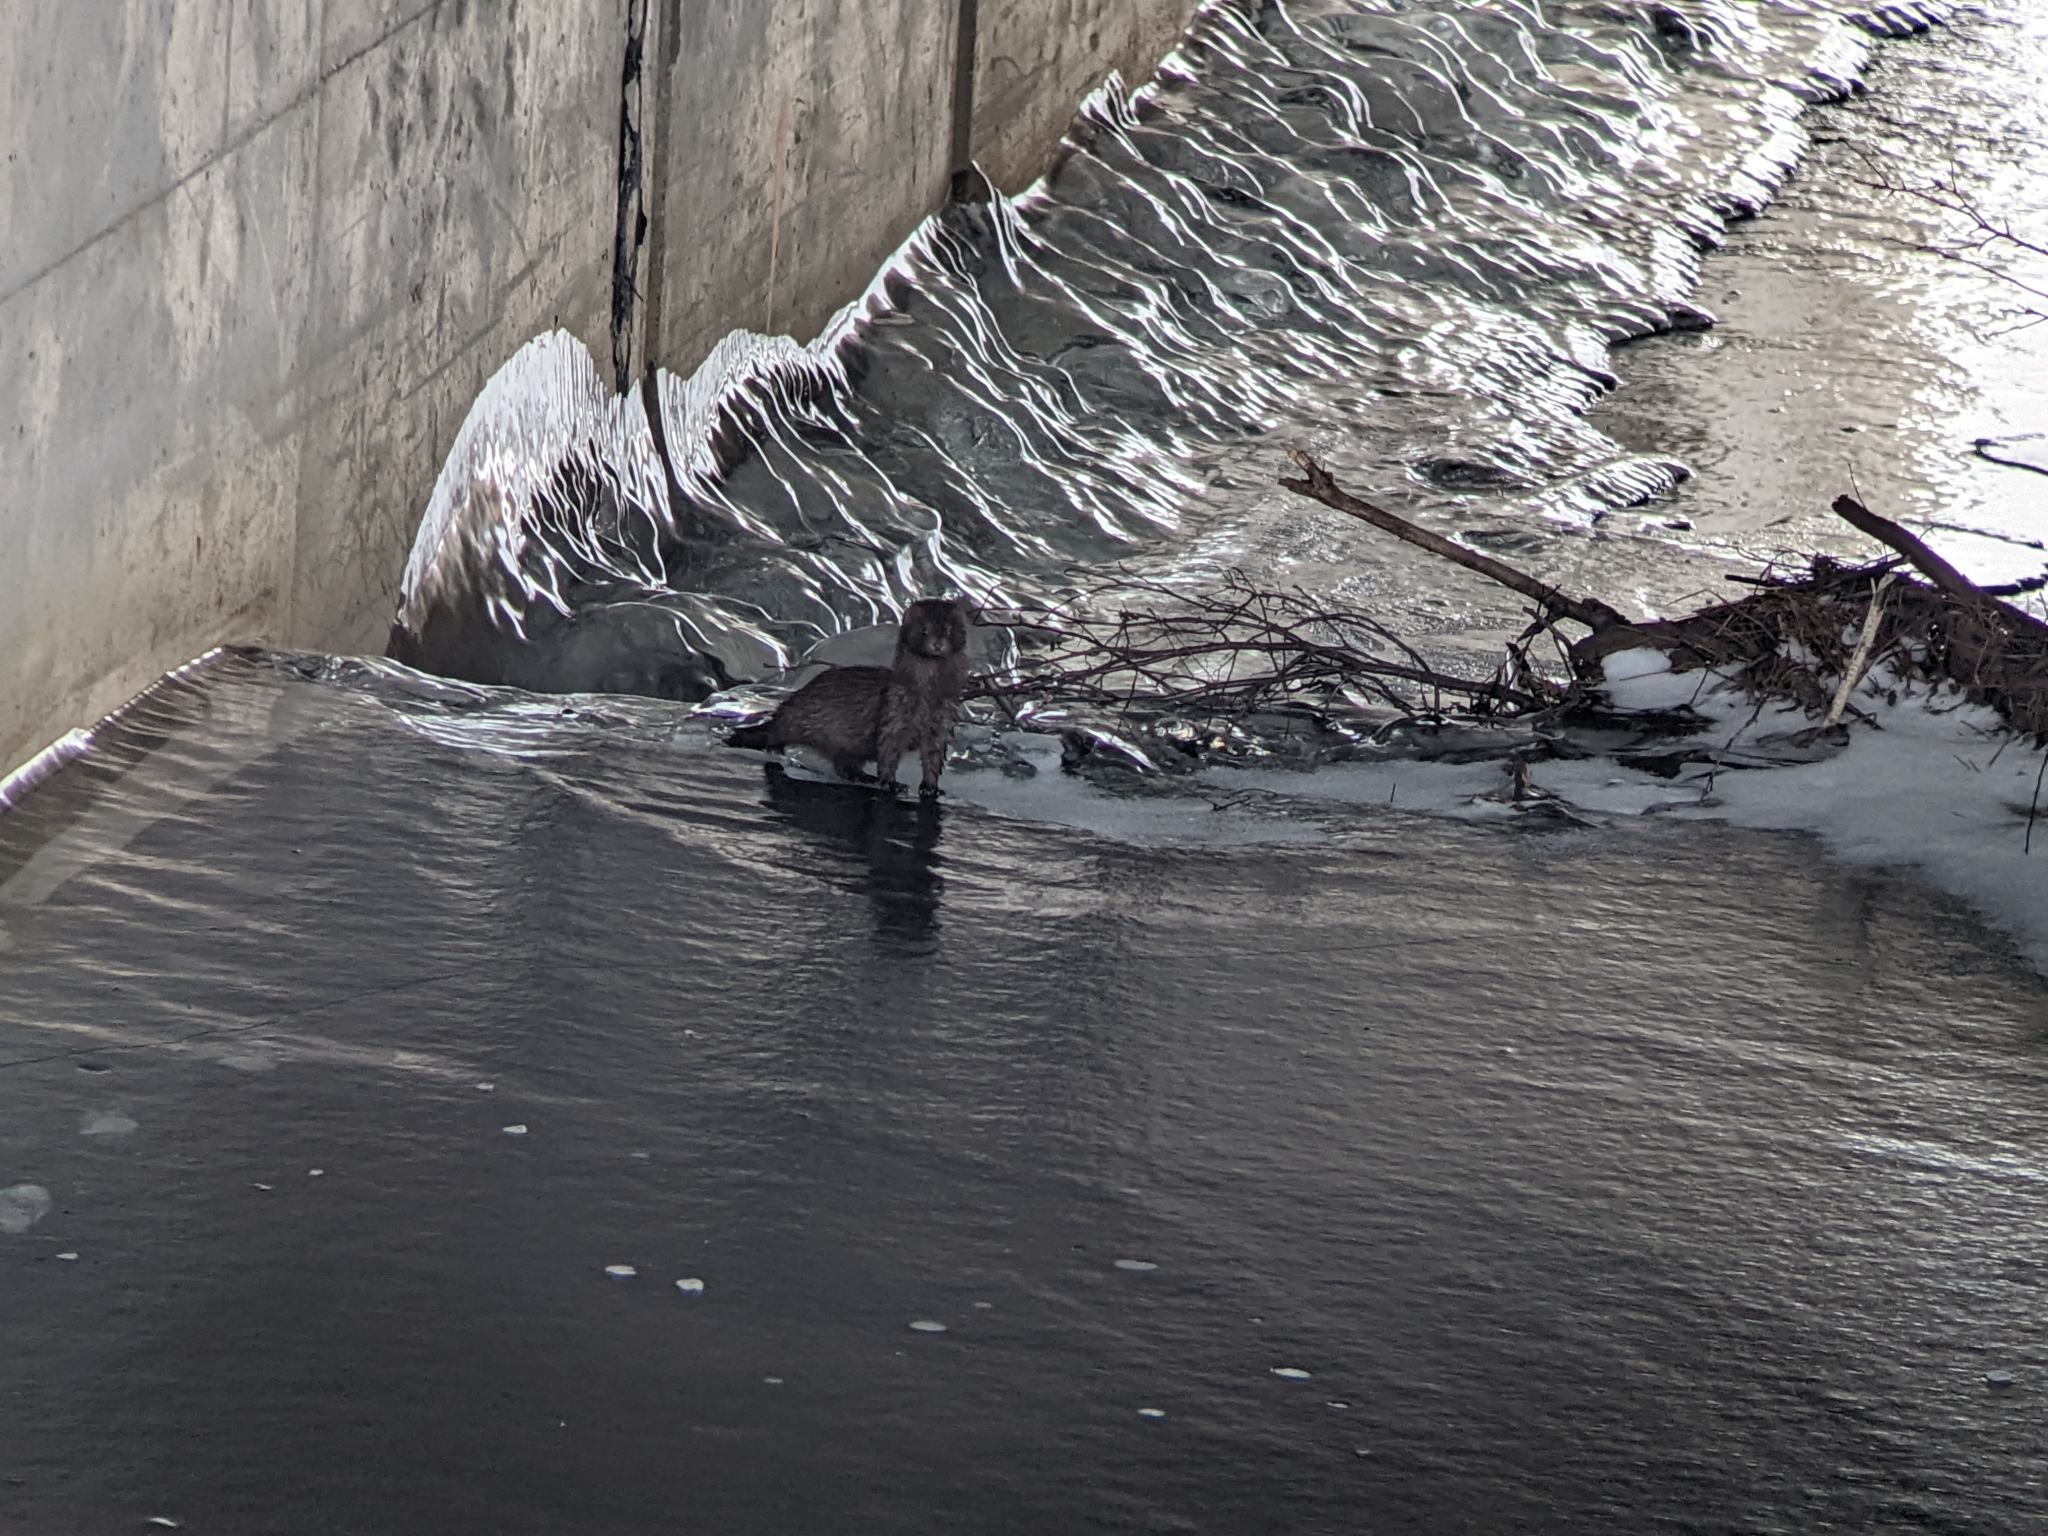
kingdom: Animalia
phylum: Chordata
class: Mammalia
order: Carnivora
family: Mustelidae
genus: Mustela
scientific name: Mustela
